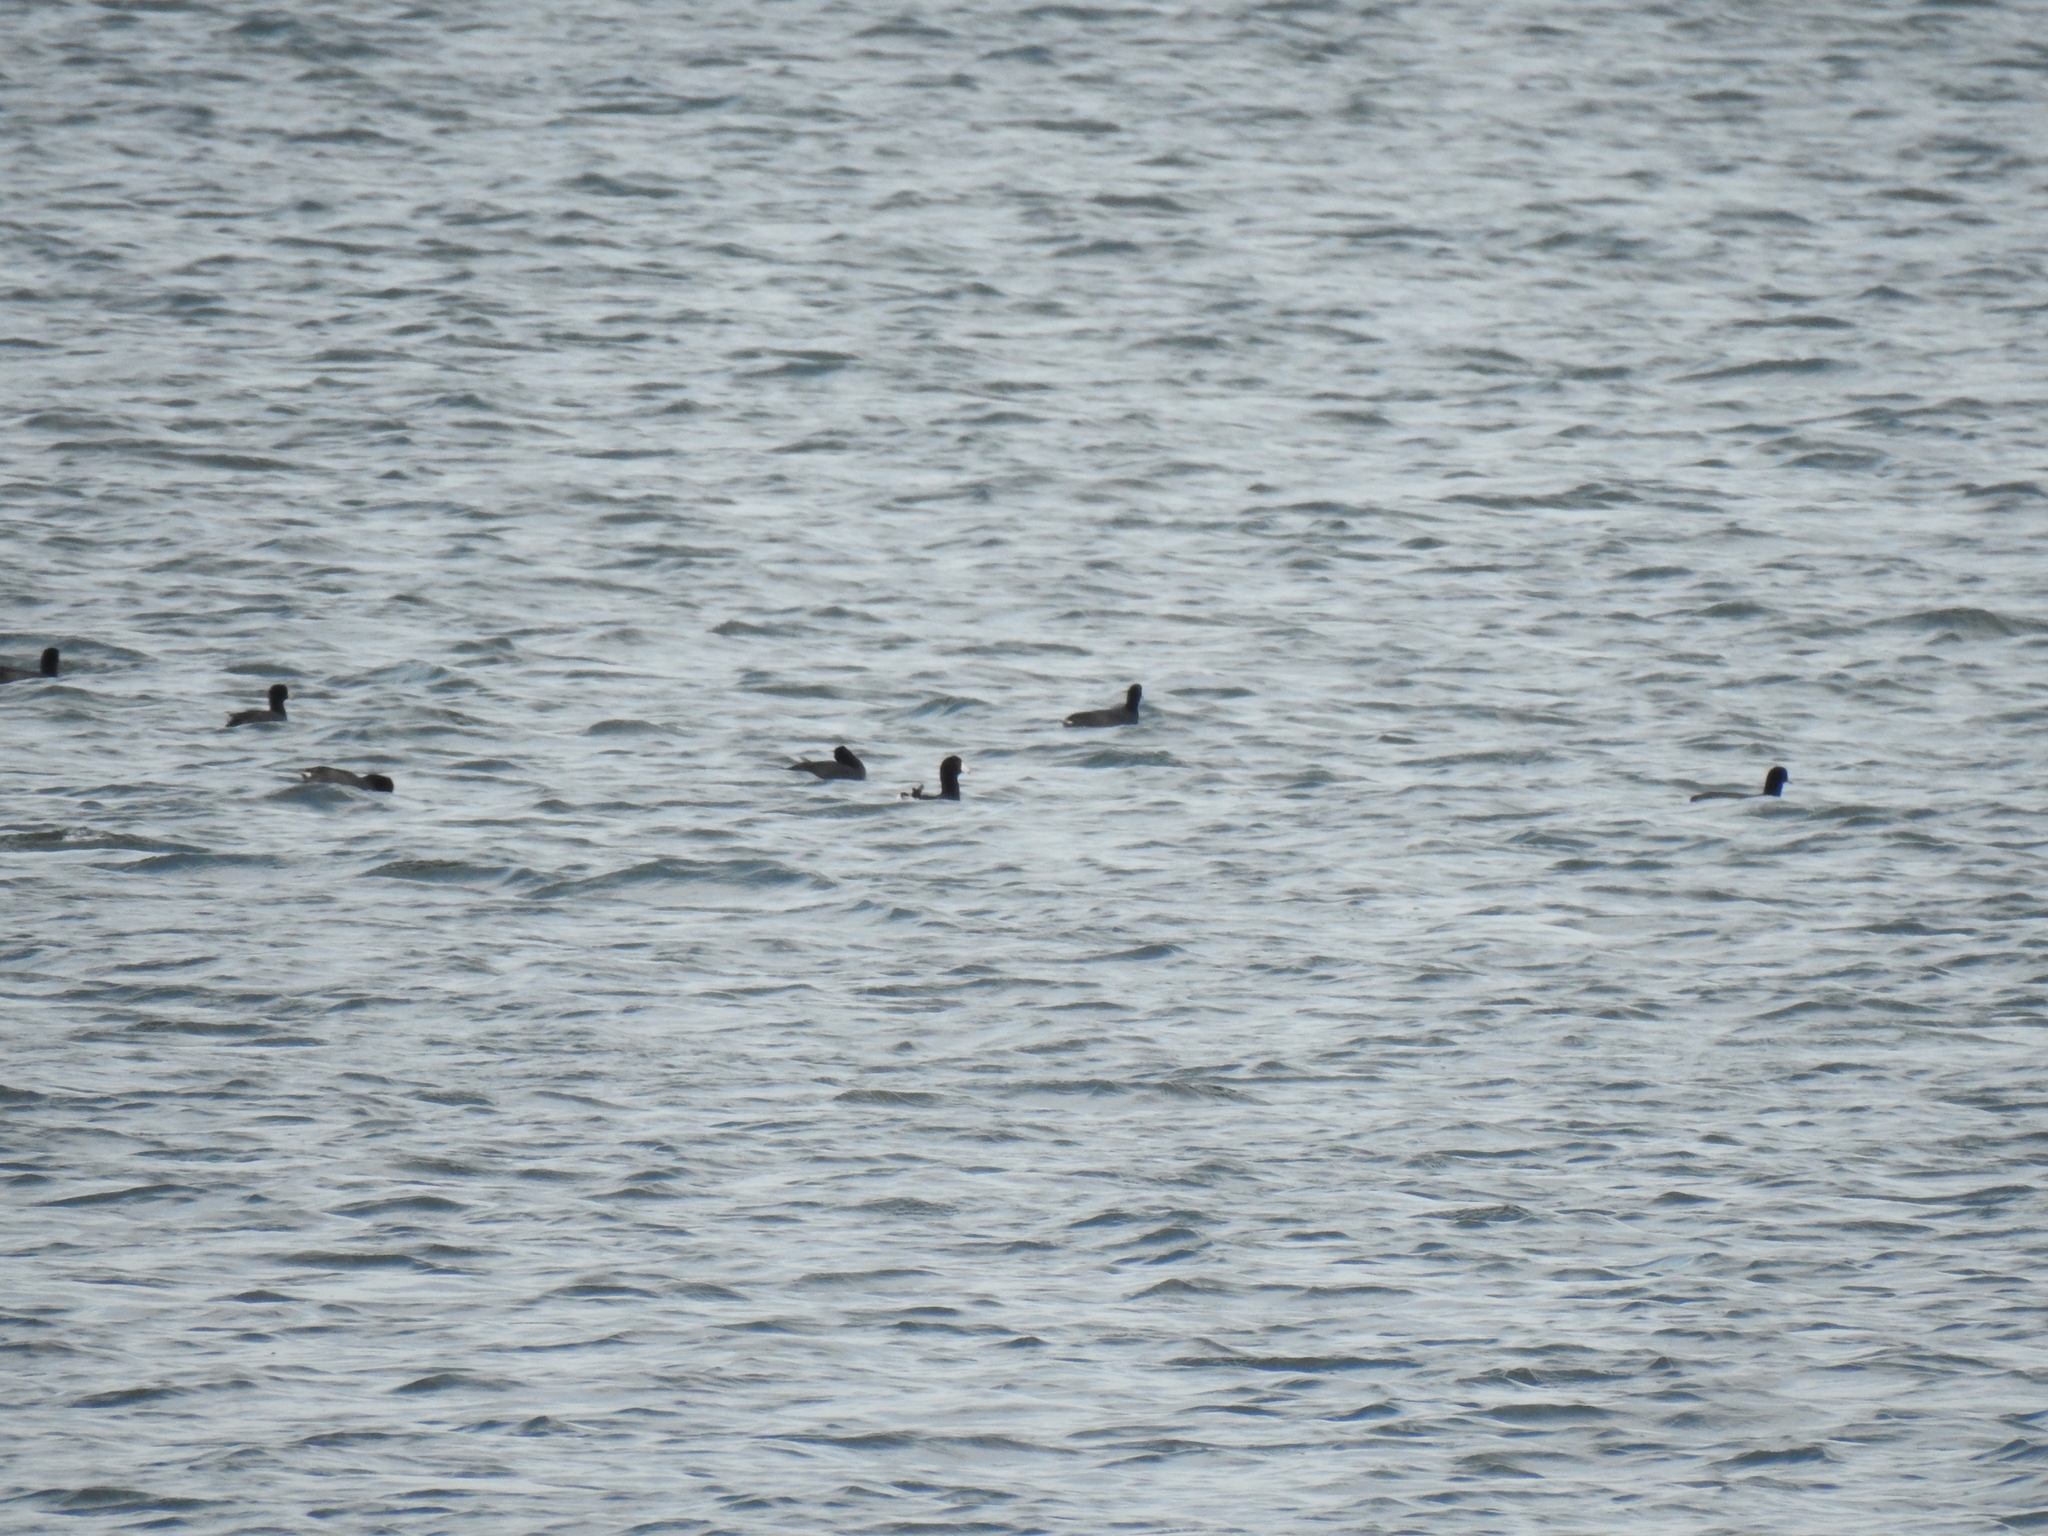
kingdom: Animalia
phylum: Chordata
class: Aves
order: Gruiformes
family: Rallidae
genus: Fulica
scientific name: Fulica americana
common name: American coot
